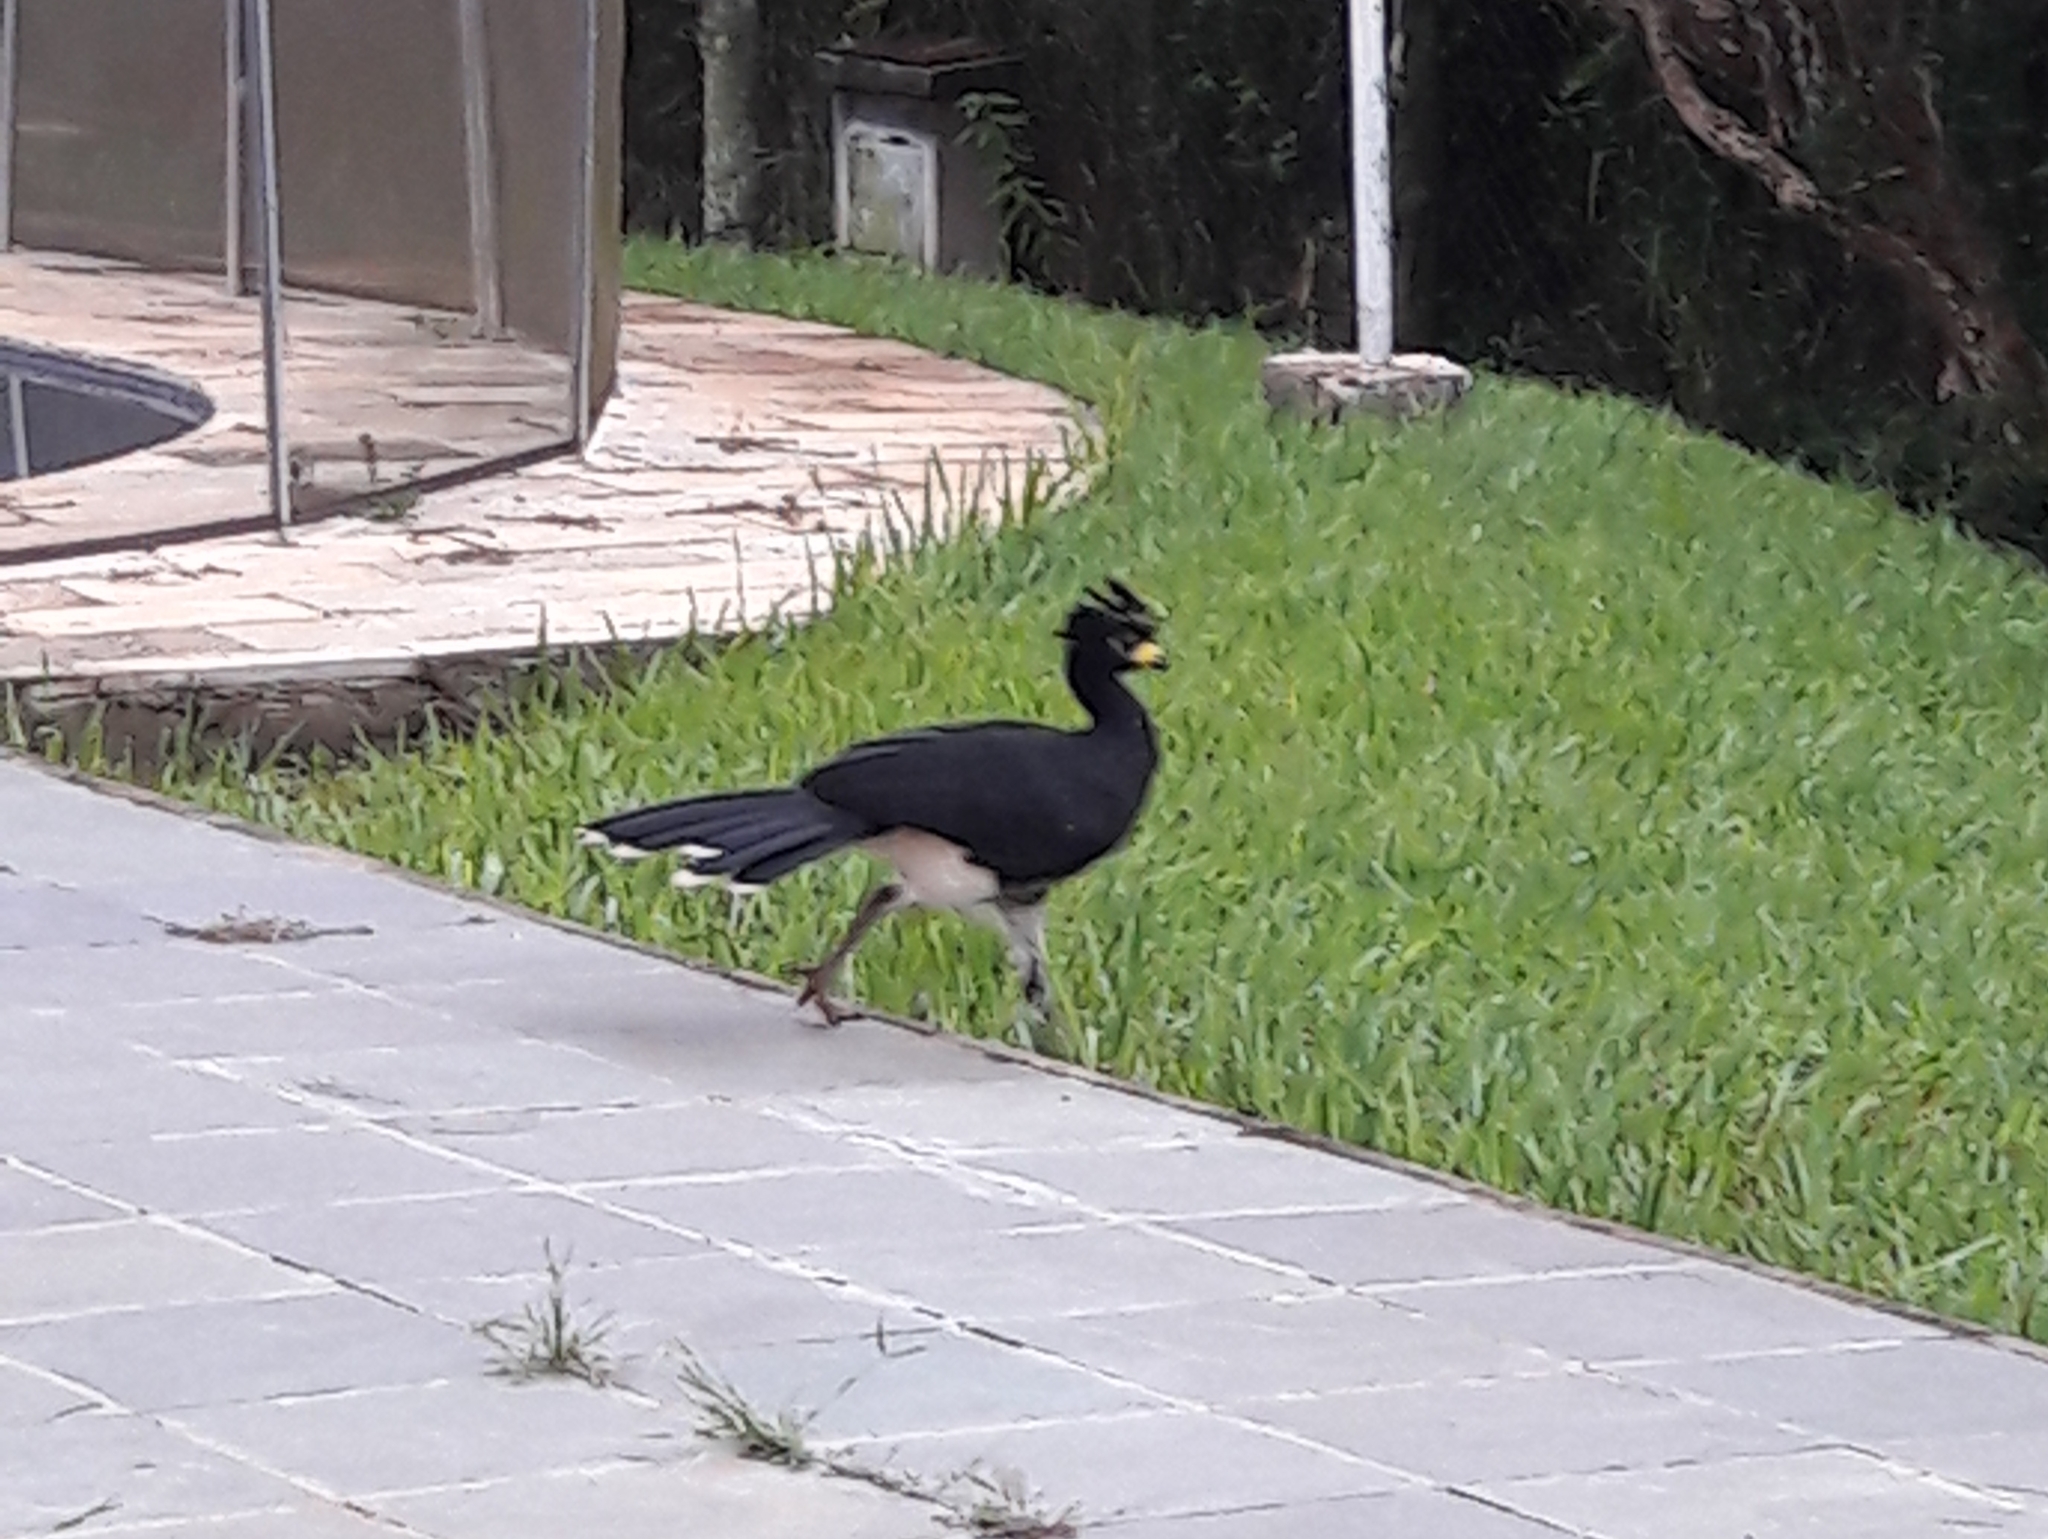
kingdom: Animalia
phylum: Chordata
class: Aves
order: Galliformes
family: Cracidae
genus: Crax
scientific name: Crax fasciolata
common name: Bare-faced curassow
